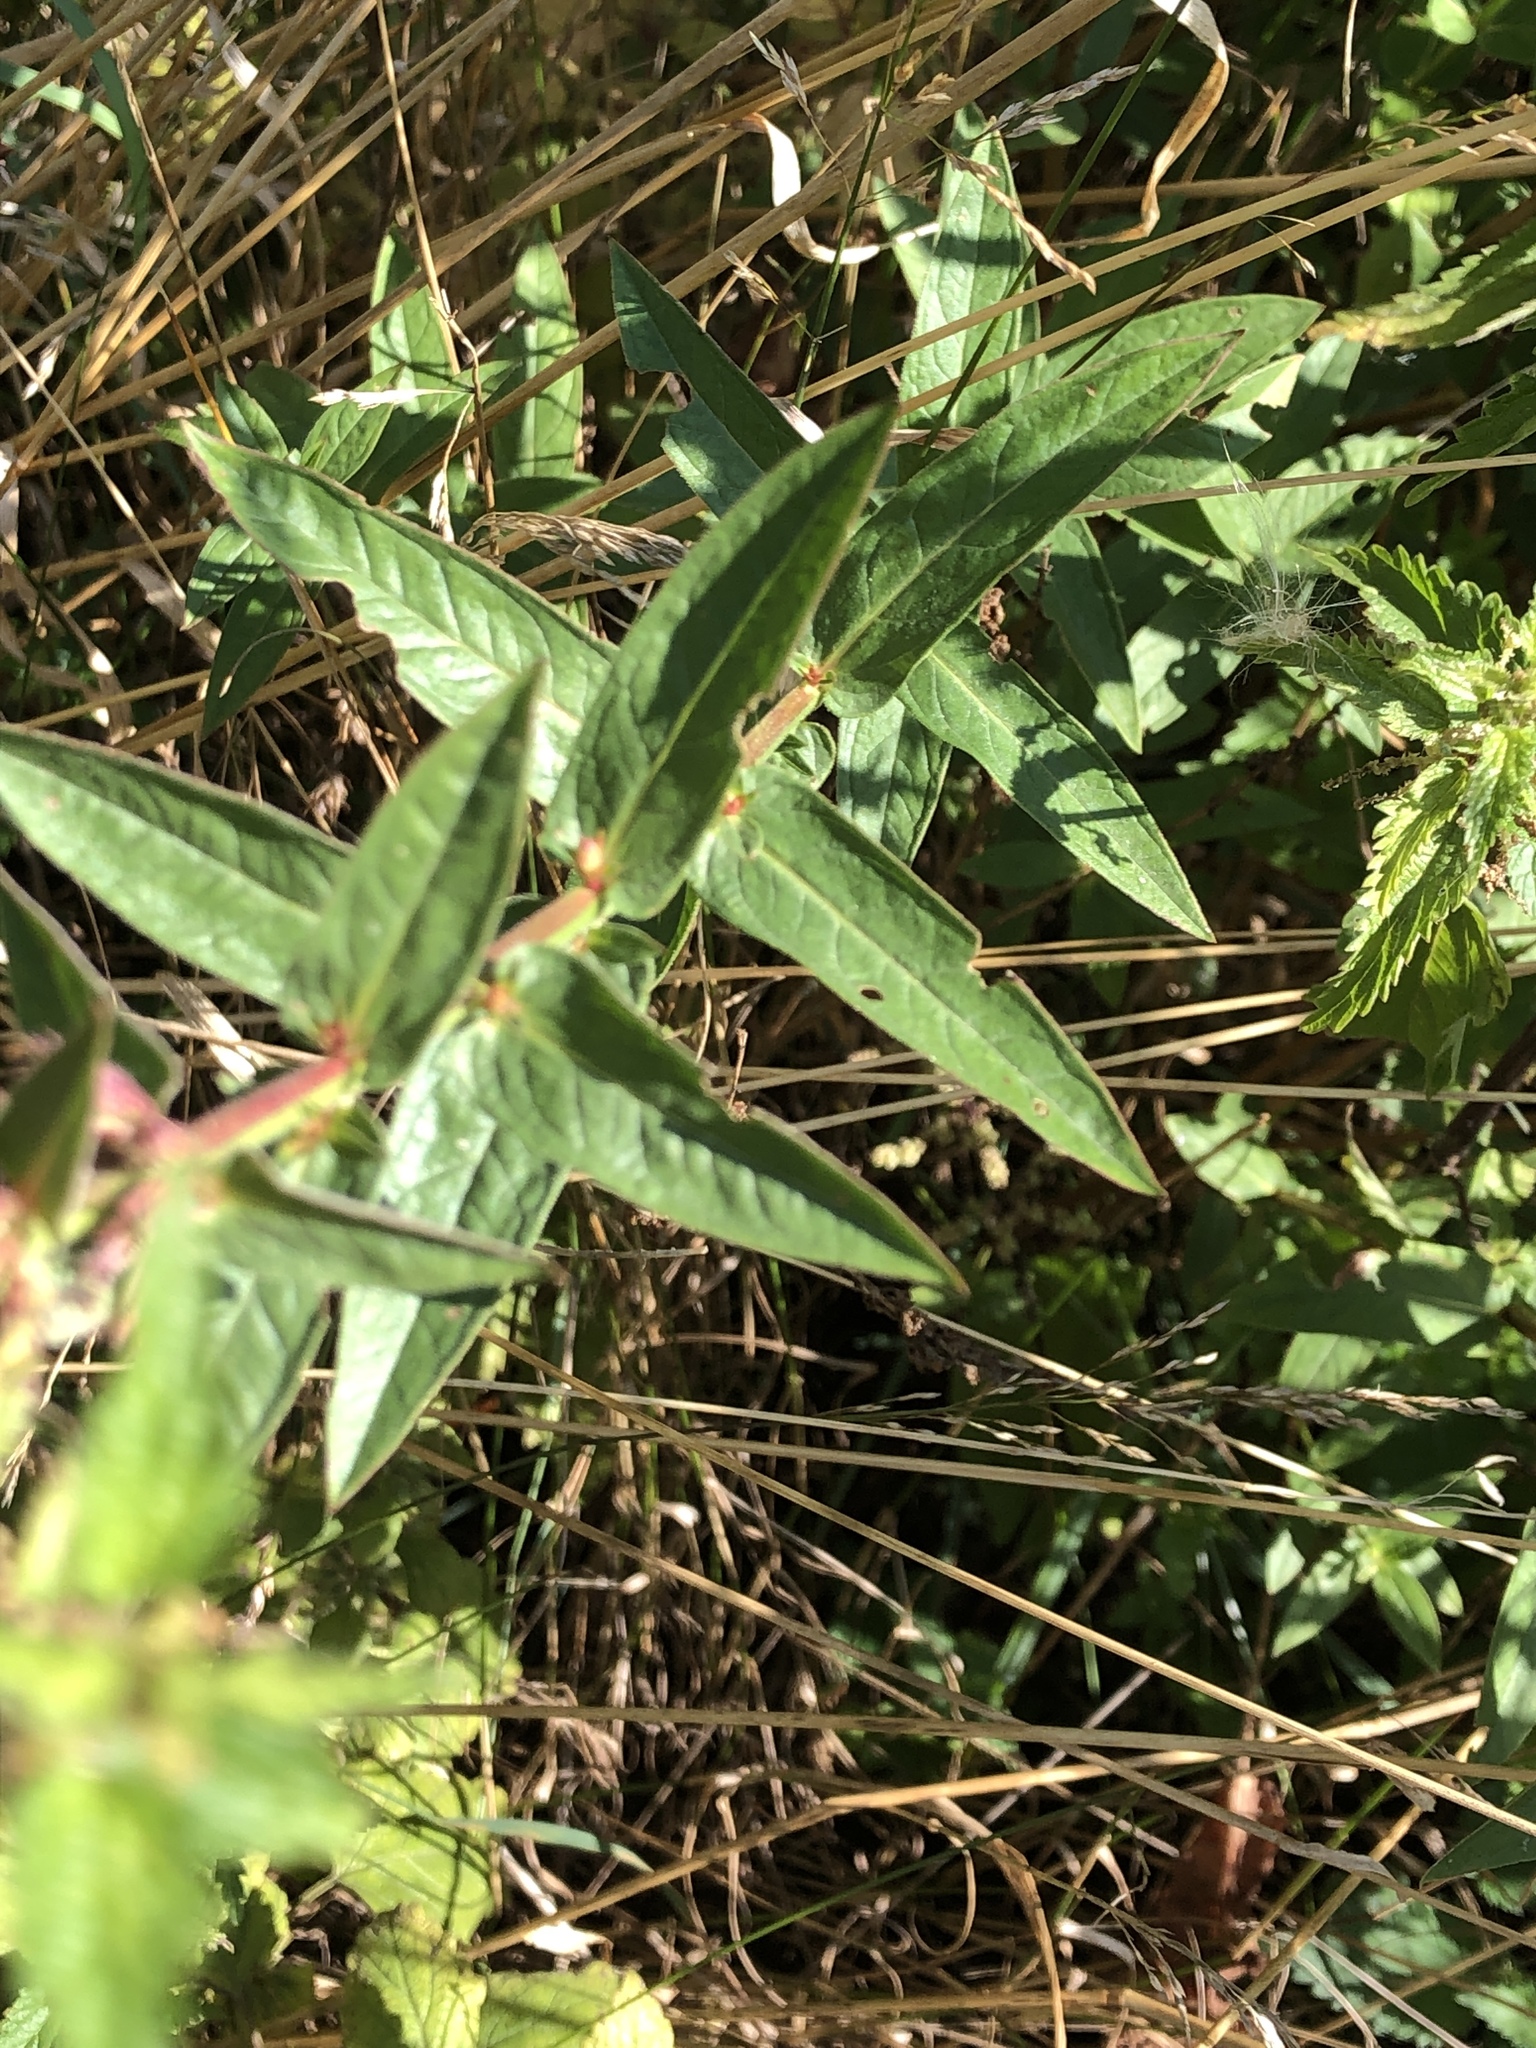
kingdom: Plantae
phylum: Tracheophyta
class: Magnoliopsida
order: Myrtales
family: Lythraceae
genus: Lythrum
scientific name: Lythrum salicaria
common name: Purple loosestrife
